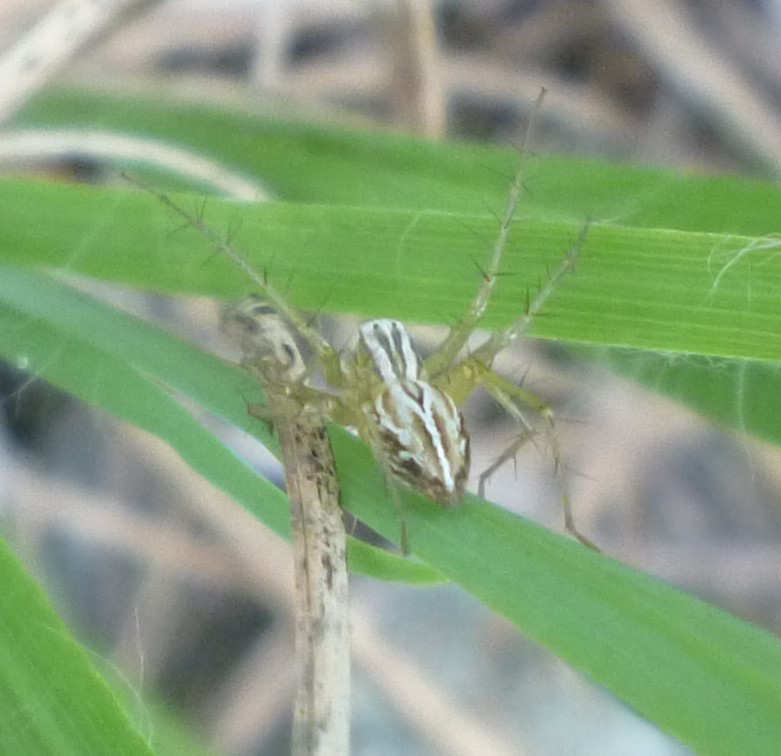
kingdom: Animalia
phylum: Arthropoda
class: Arachnida
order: Araneae
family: Oxyopidae
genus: Oxyopes
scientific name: Oxyopes salticus
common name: Lynx spiders
